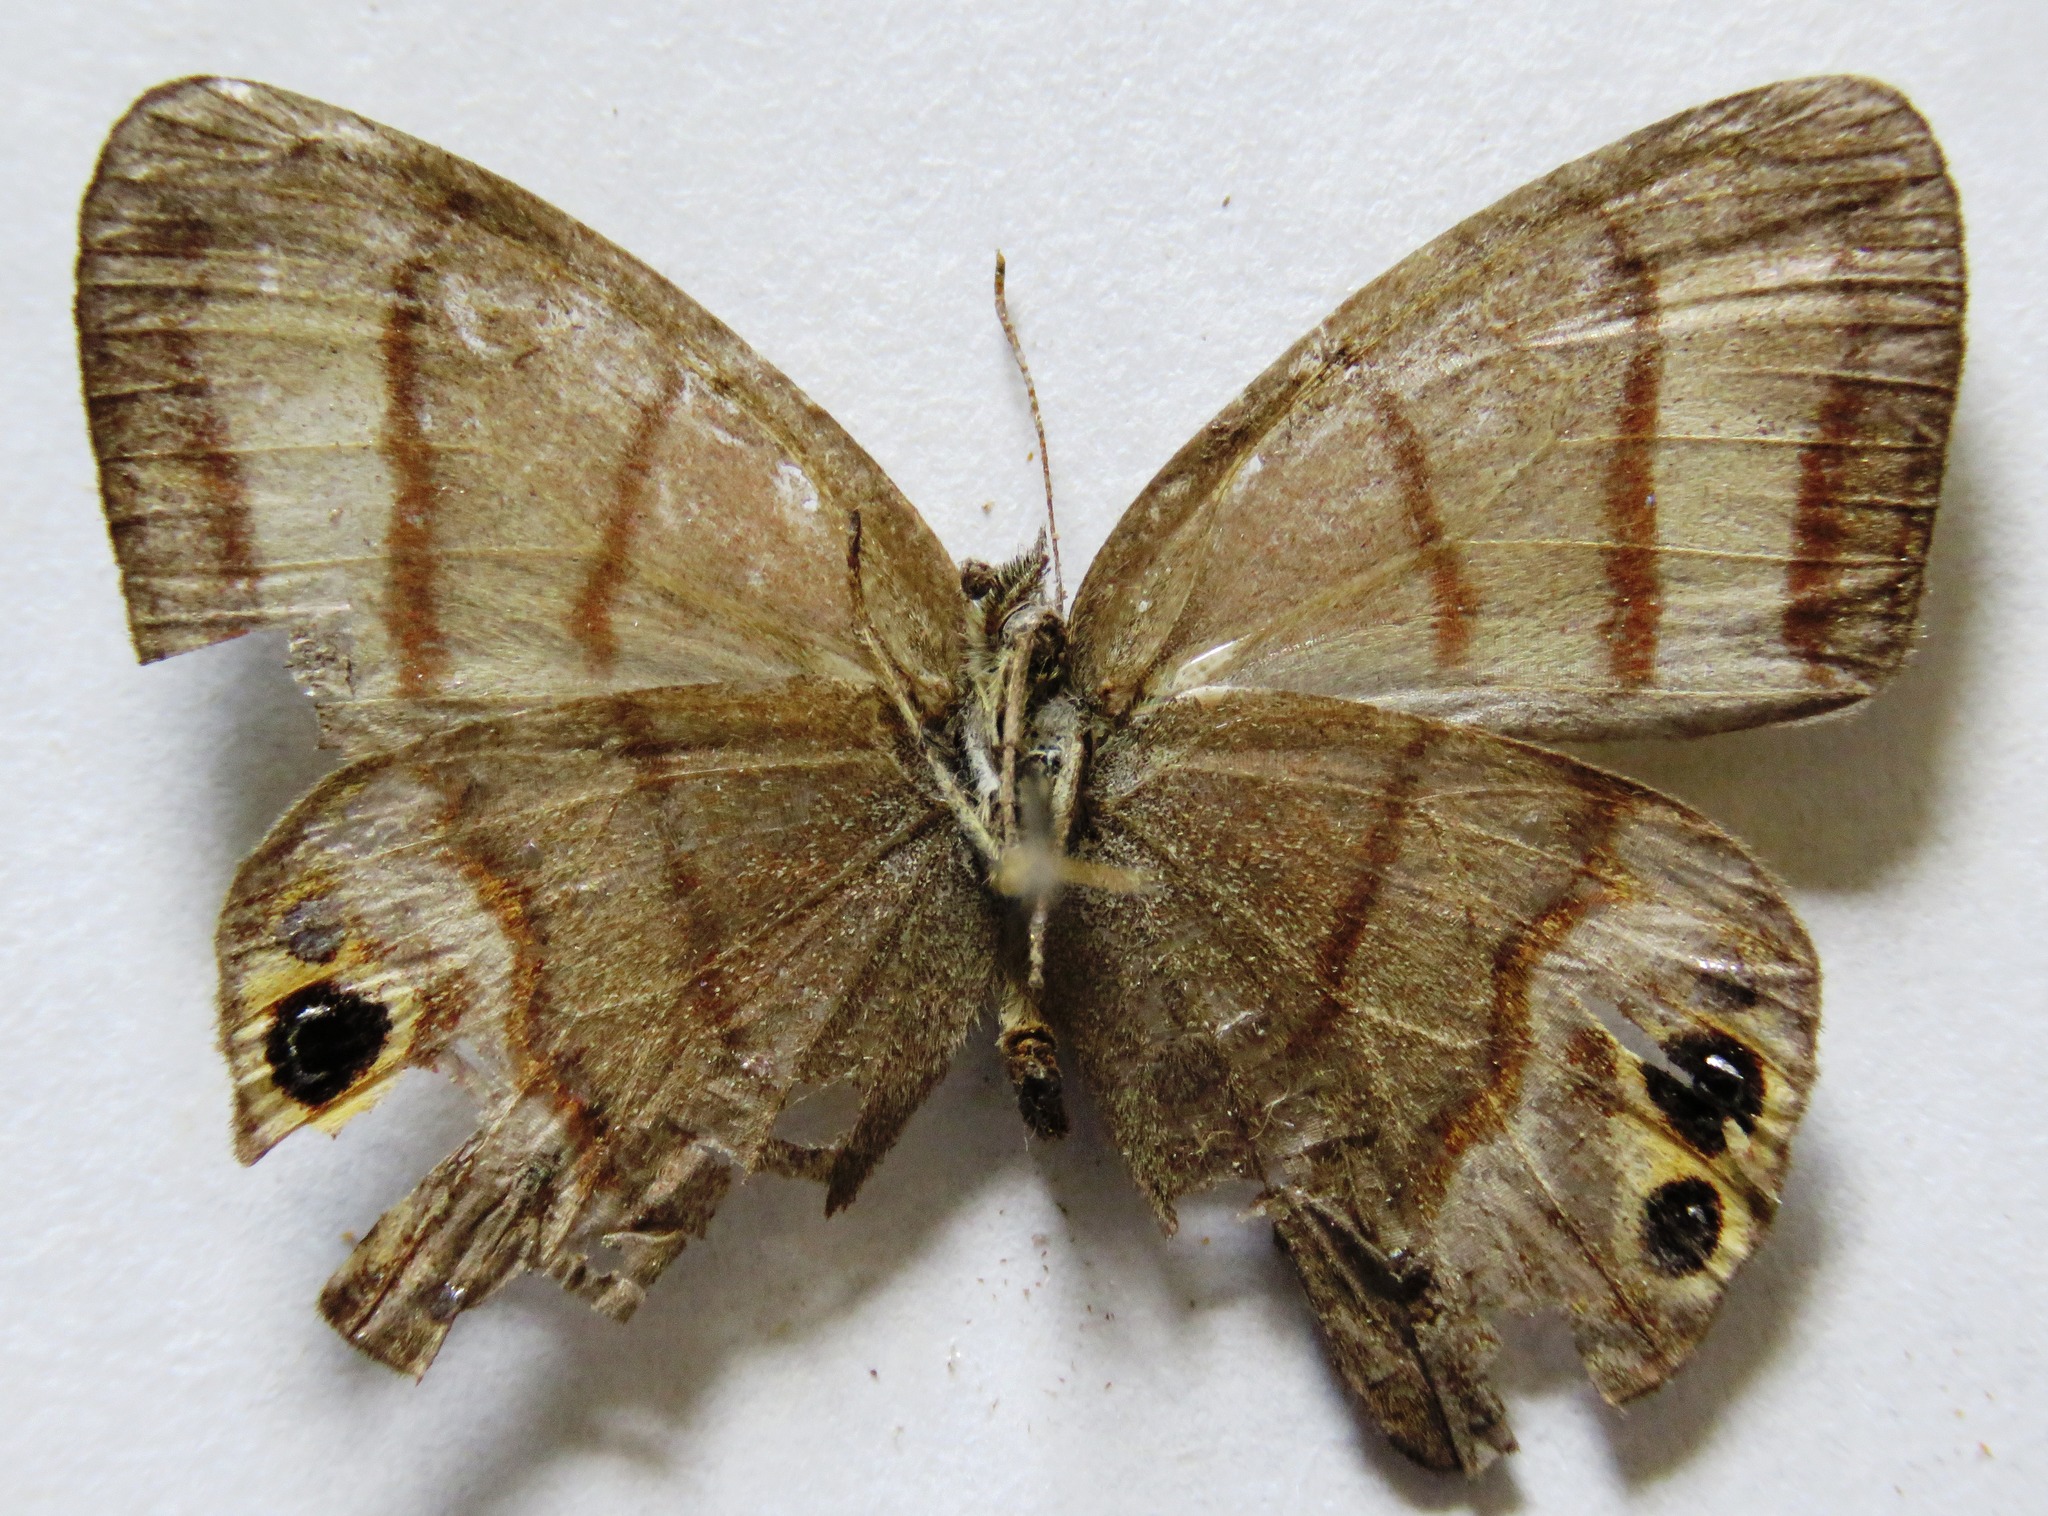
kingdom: Animalia
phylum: Arthropoda
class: Insecta
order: Lepidoptera
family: Nymphalidae
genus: Euptychia
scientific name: Euptychia
